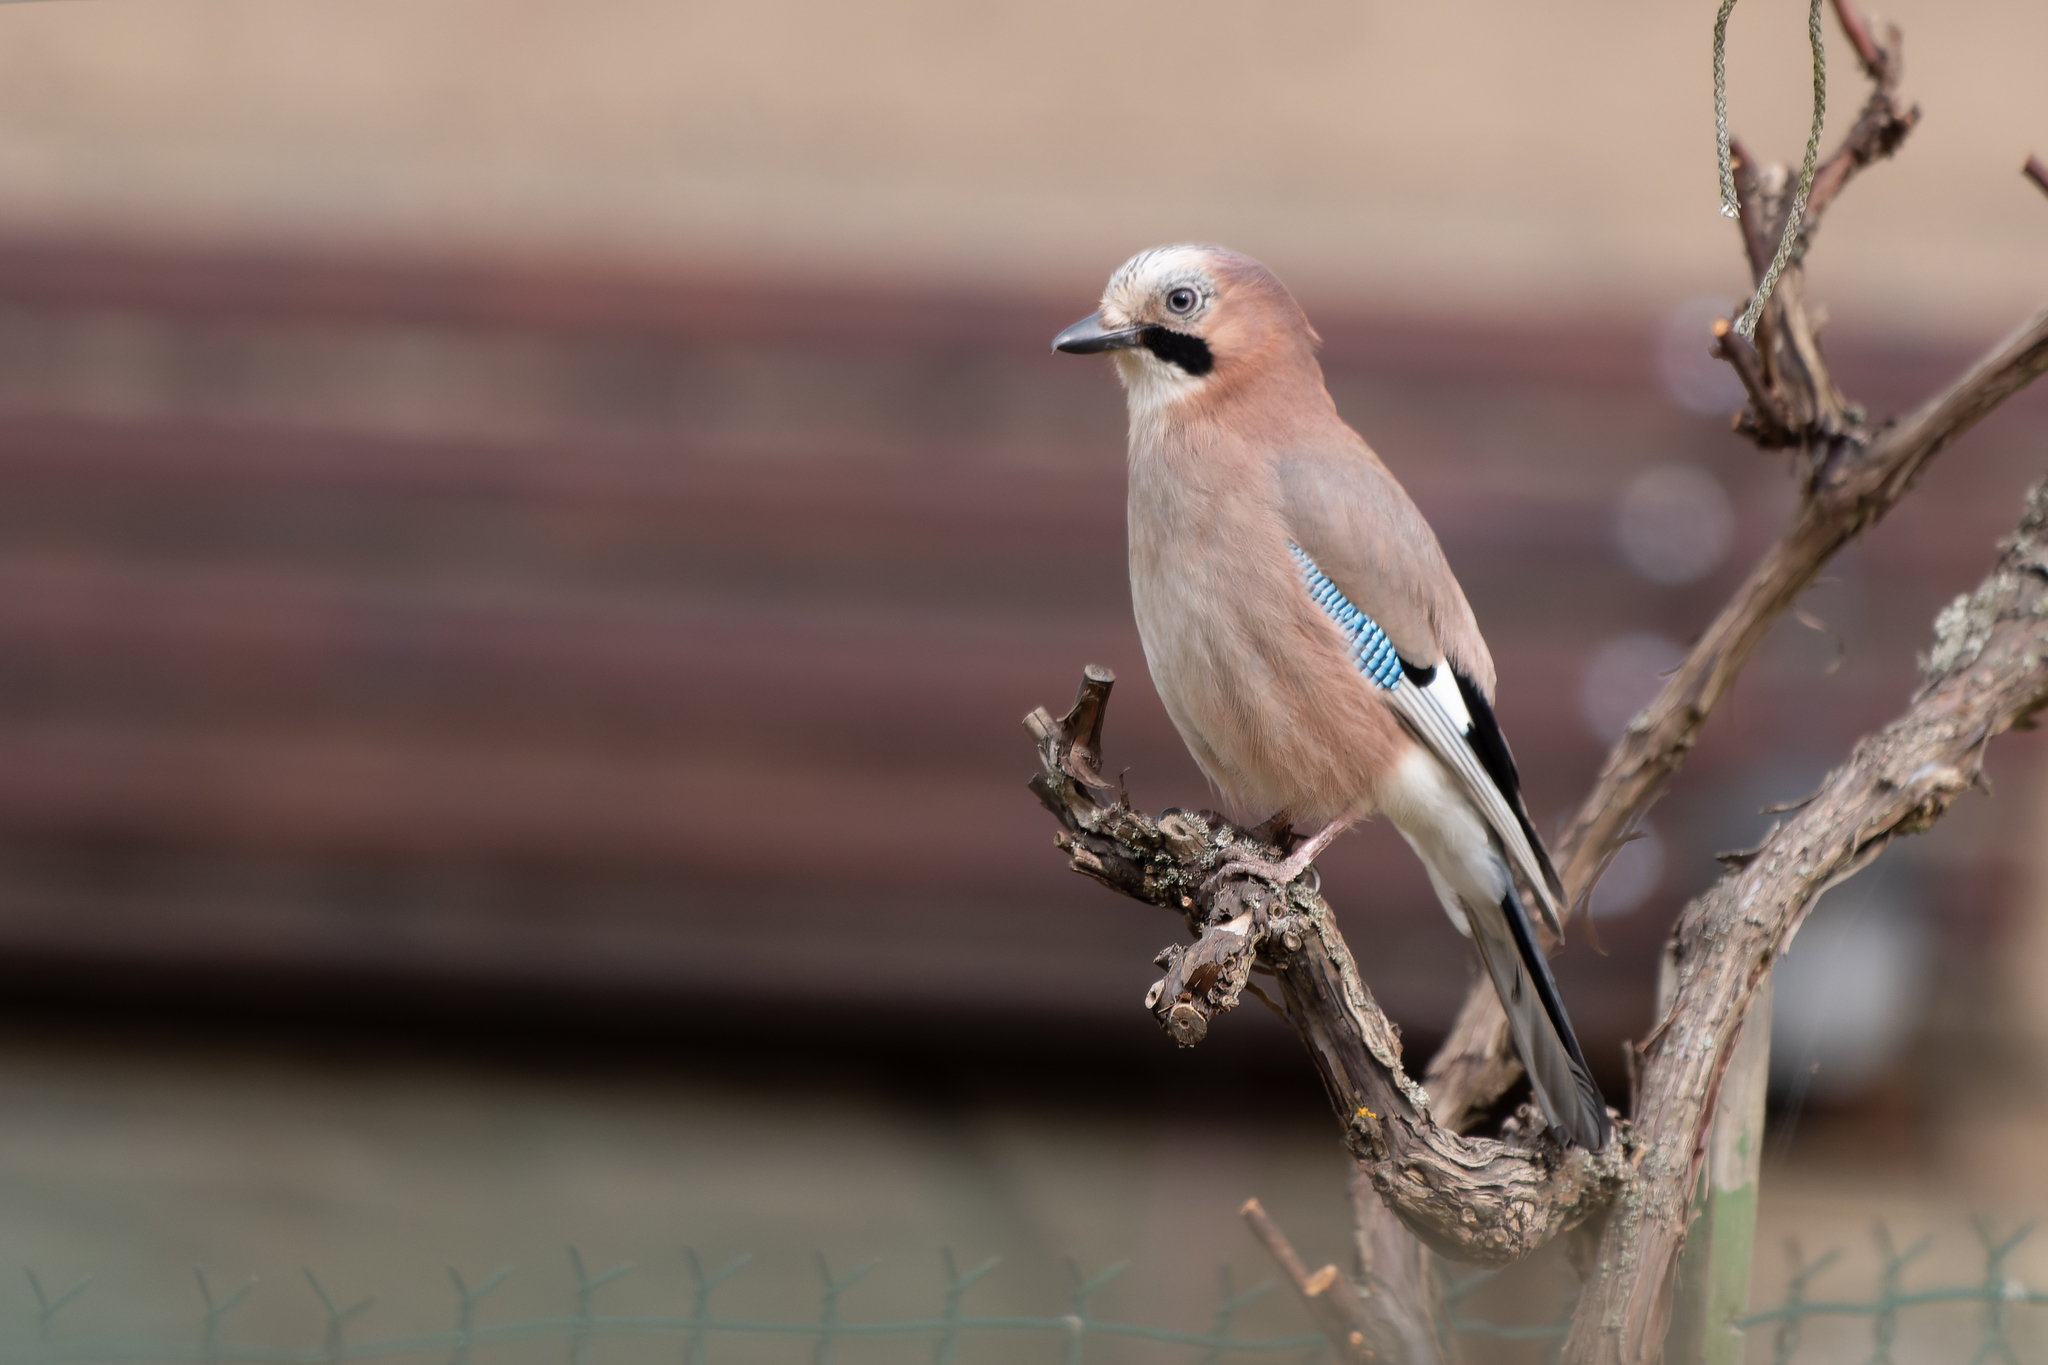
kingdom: Animalia
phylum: Chordata
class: Aves
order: Passeriformes
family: Corvidae
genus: Garrulus
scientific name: Garrulus glandarius
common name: Eurasian jay
